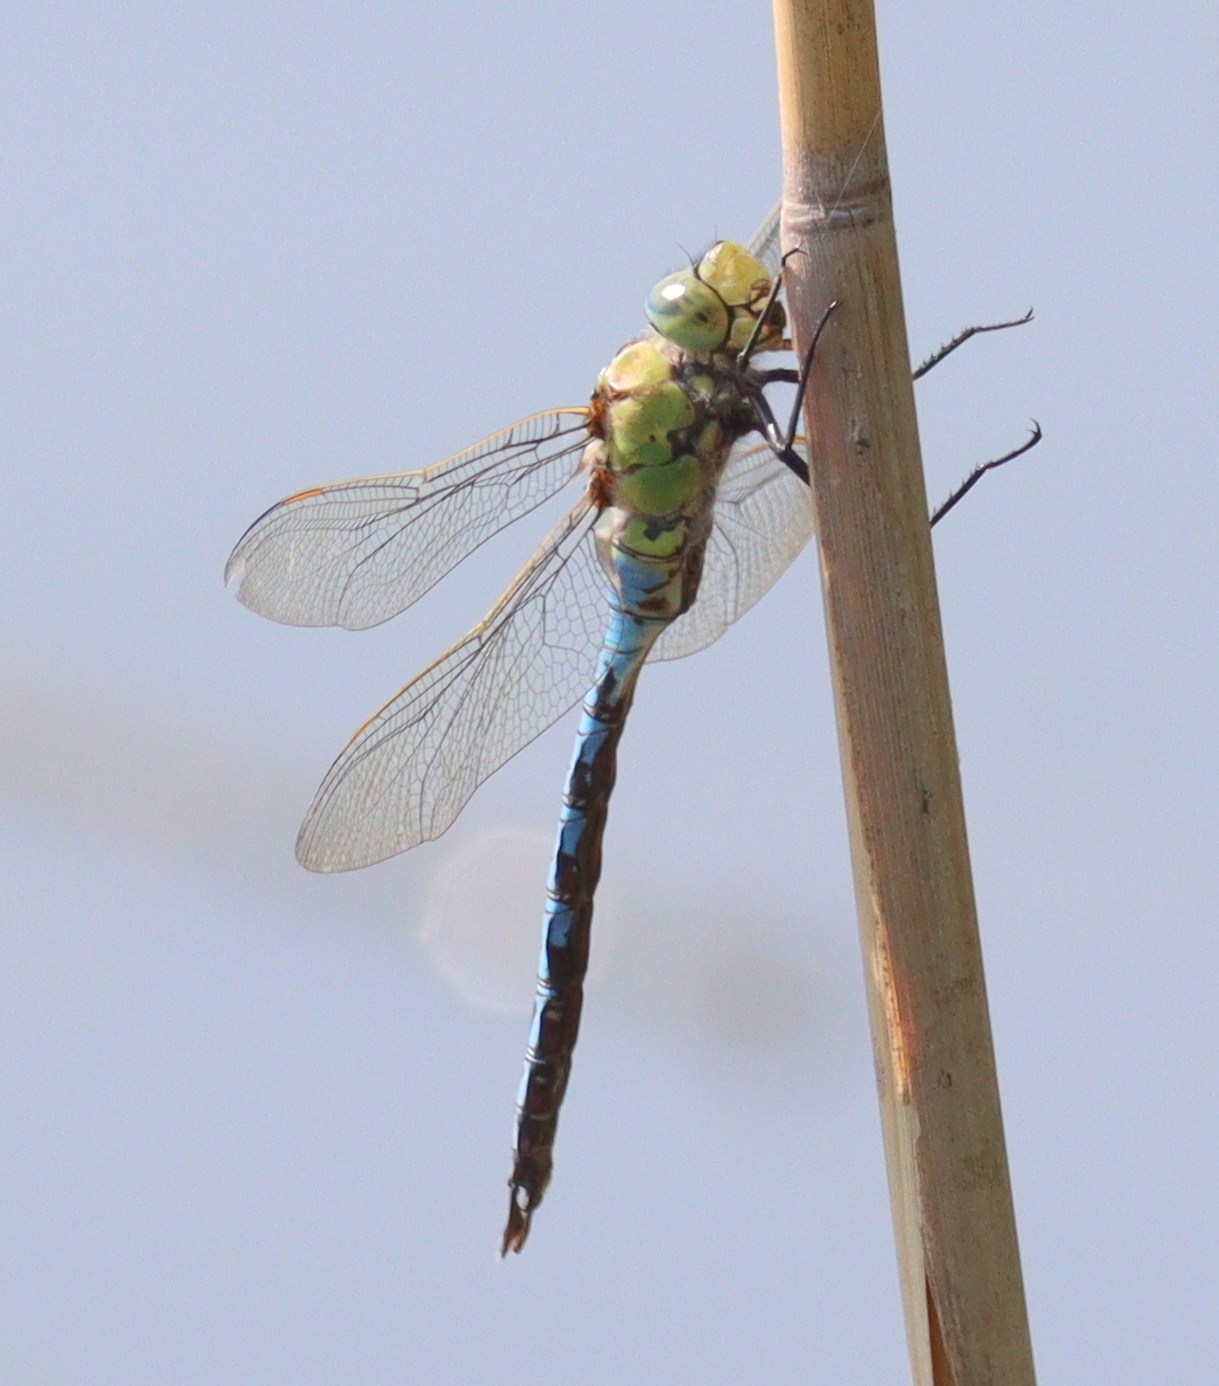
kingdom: Animalia
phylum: Arthropoda
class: Insecta
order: Odonata
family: Aeshnidae
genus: Anax
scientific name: Anax imperator
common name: Emperor dragonfly
